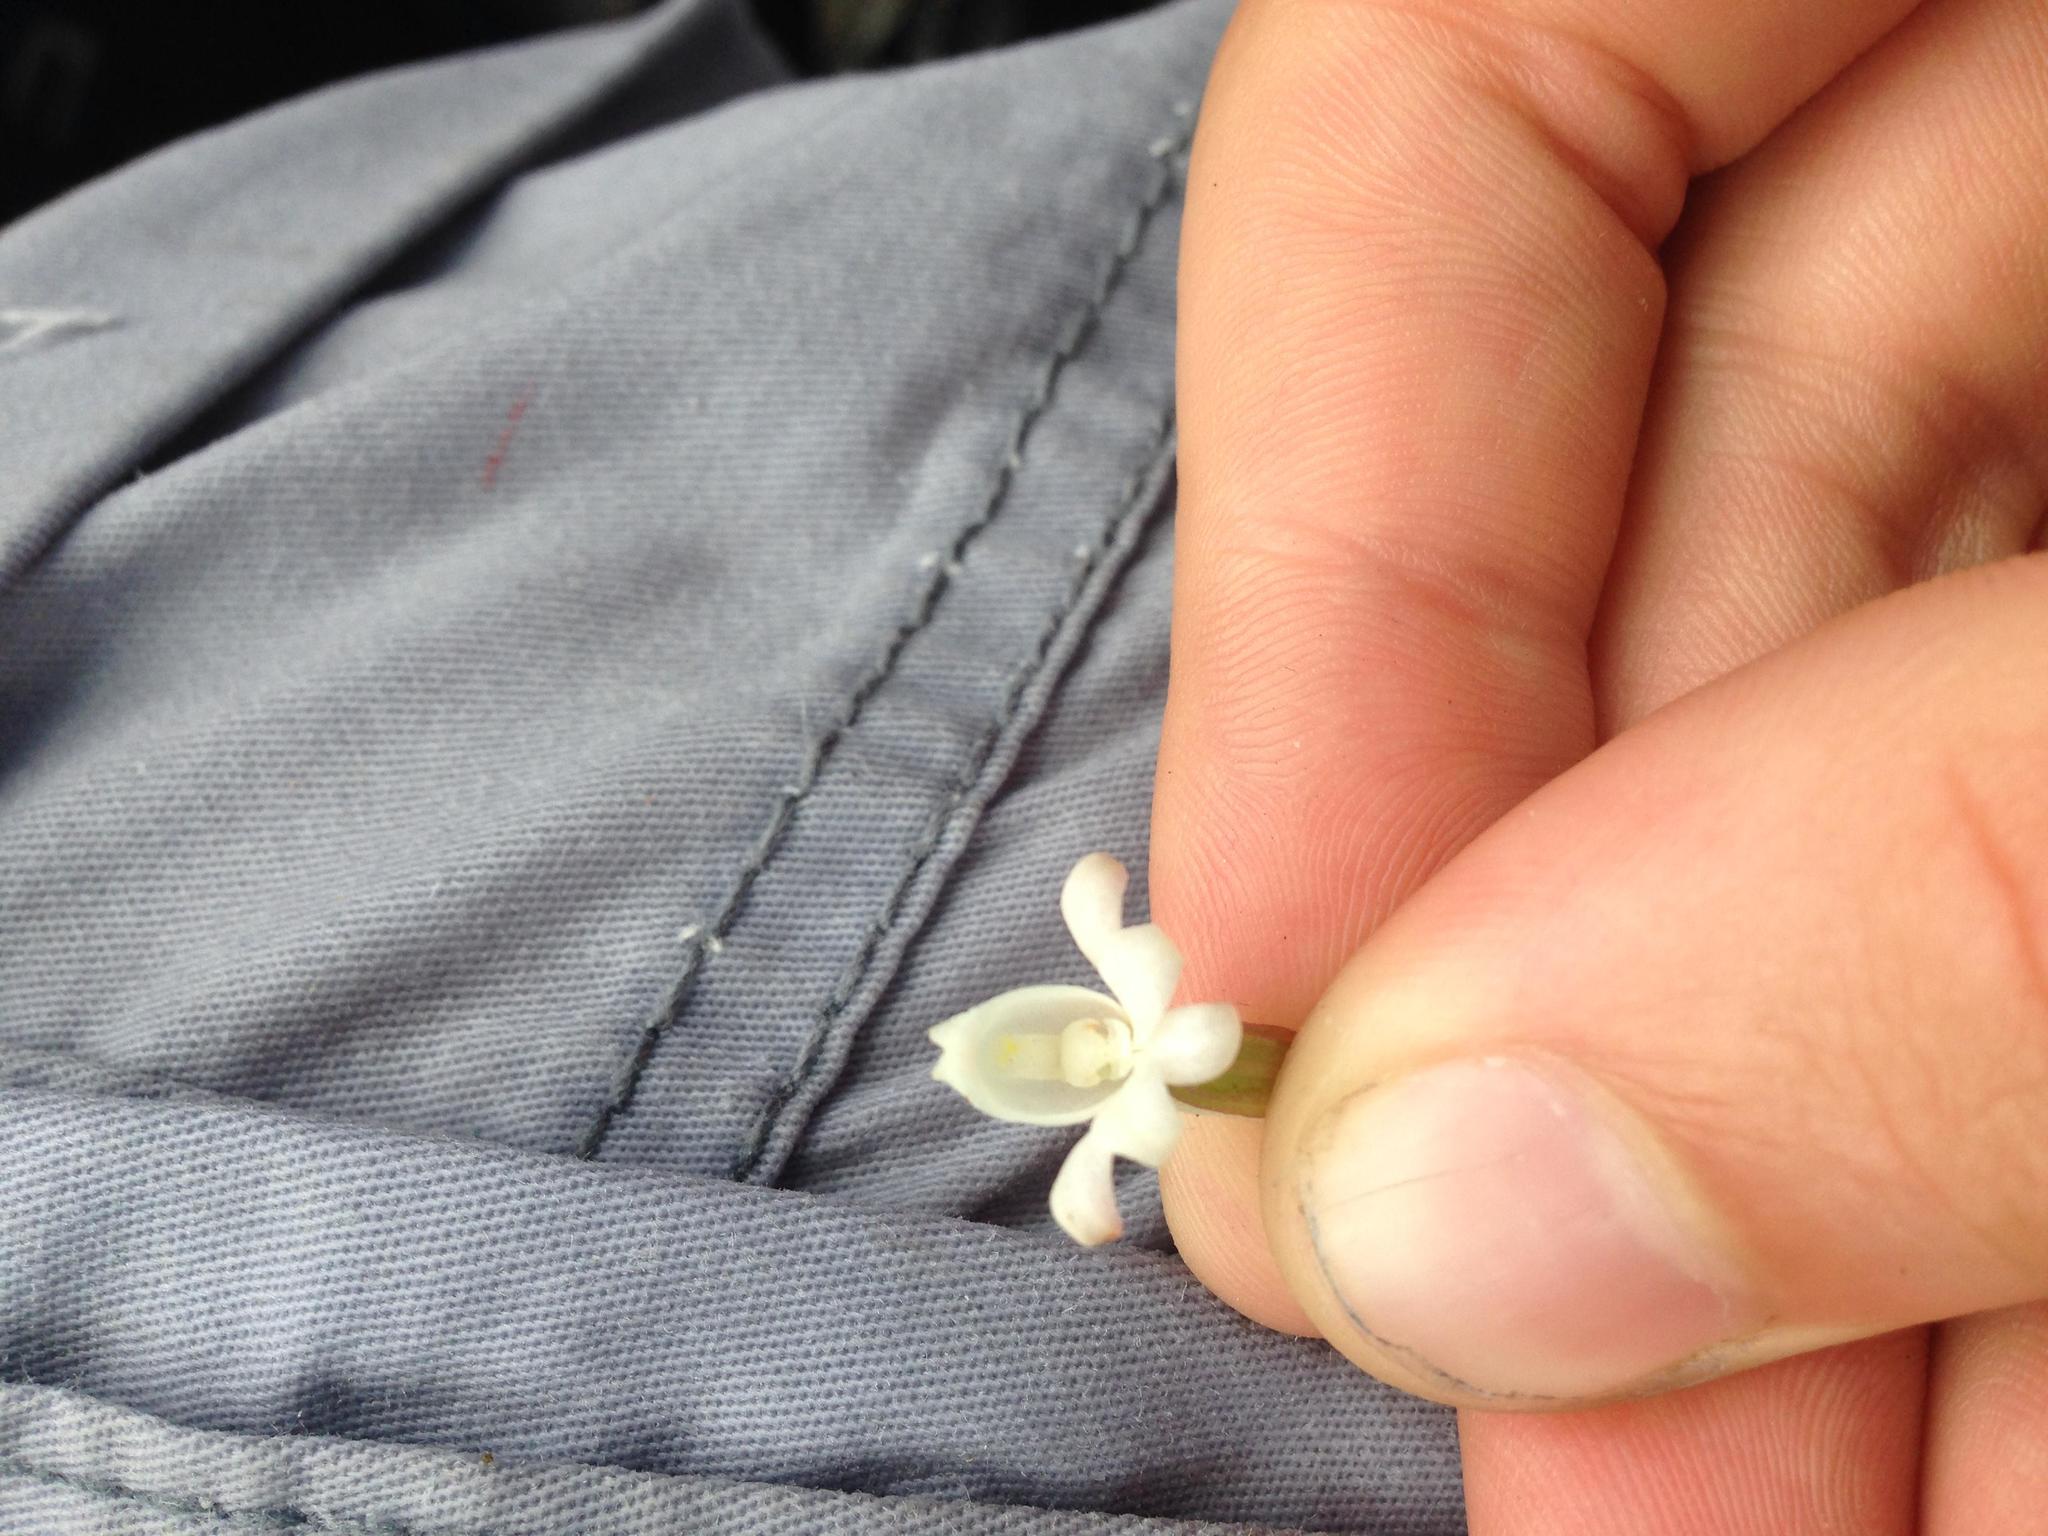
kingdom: Plantae
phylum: Tracheophyta
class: Liliopsida
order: Asparagales
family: Orchidaceae
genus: Satyrium
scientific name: Satyrium acuminatum
